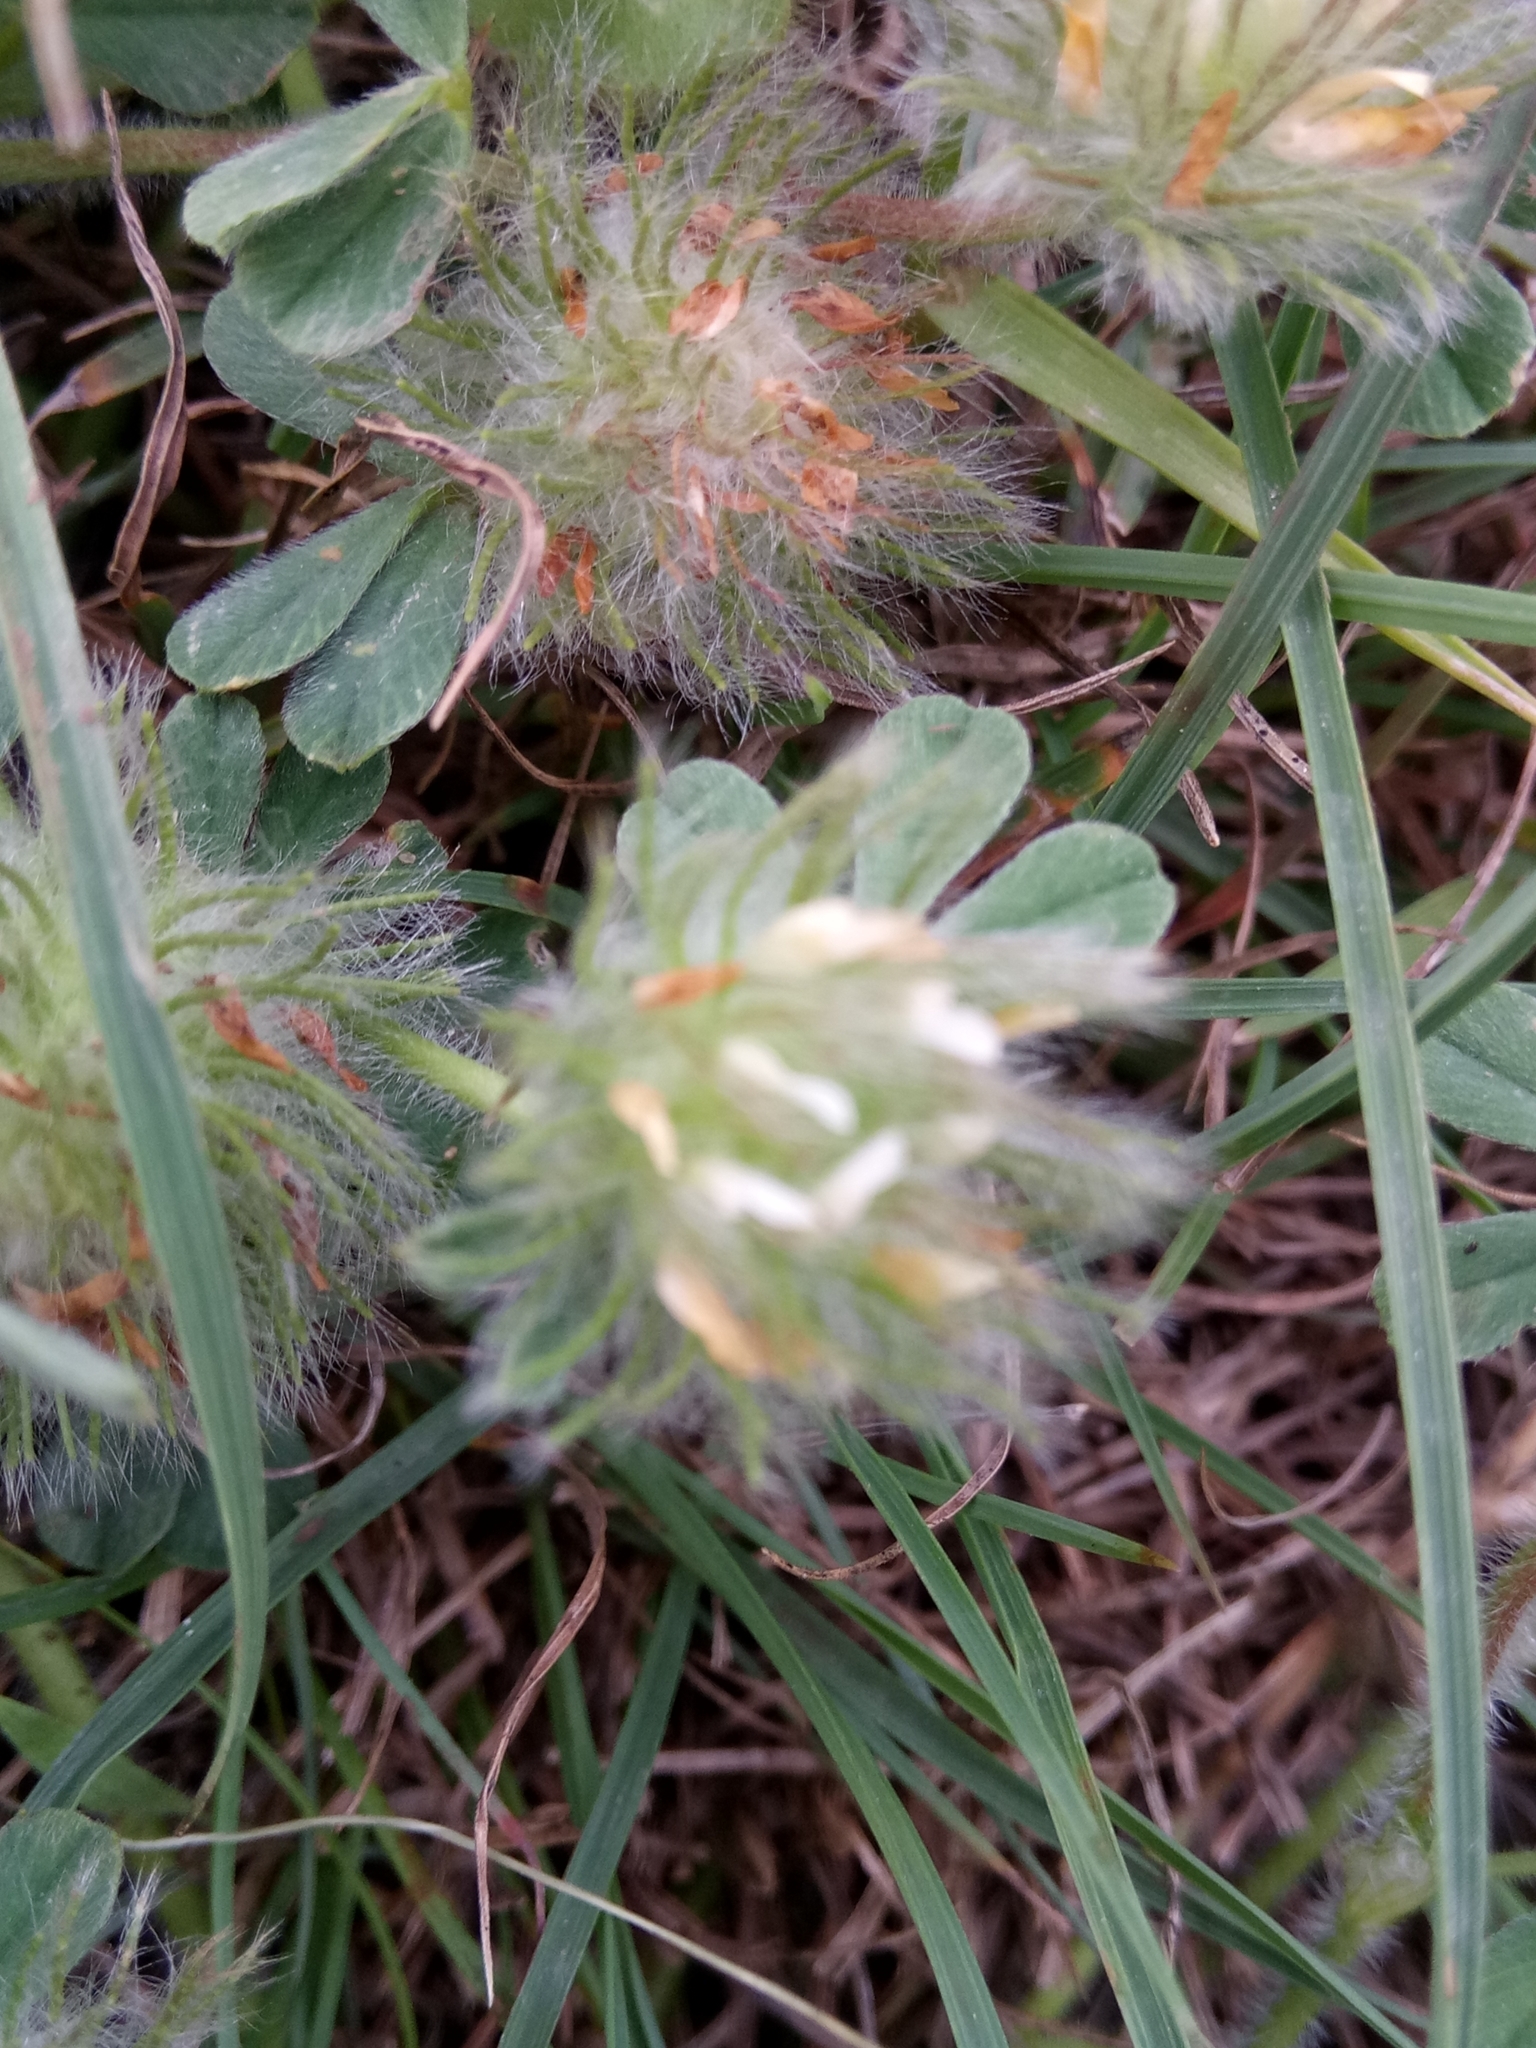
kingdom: Plantae
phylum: Tracheophyta
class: Magnoliopsida
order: Fabales
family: Fabaceae
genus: Trifolium
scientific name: Trifolium cherleri
